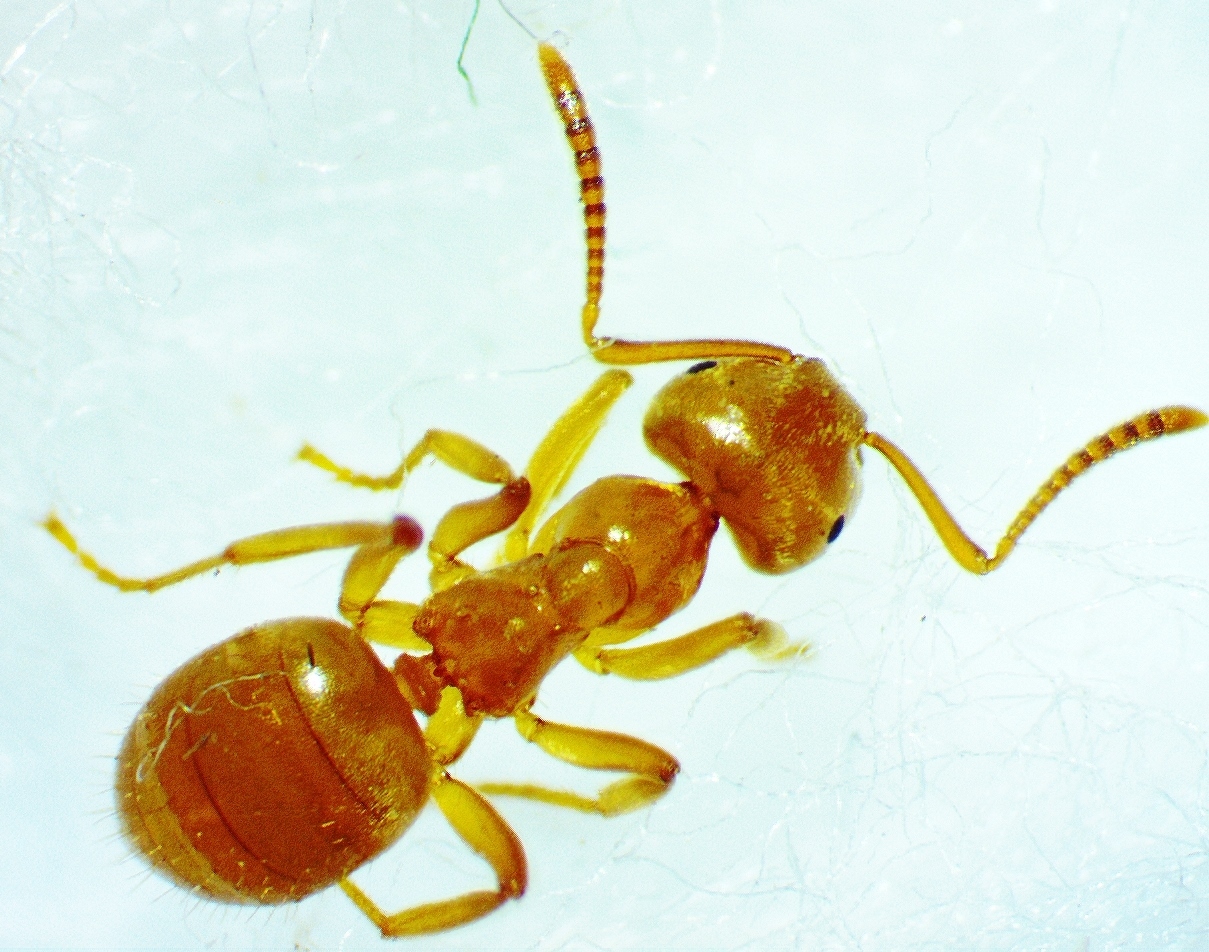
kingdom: Animalia
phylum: Arthropoda
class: Insecta
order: Hymenoptera
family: Formicidae
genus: Lasius
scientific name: Lasius aphidicola
